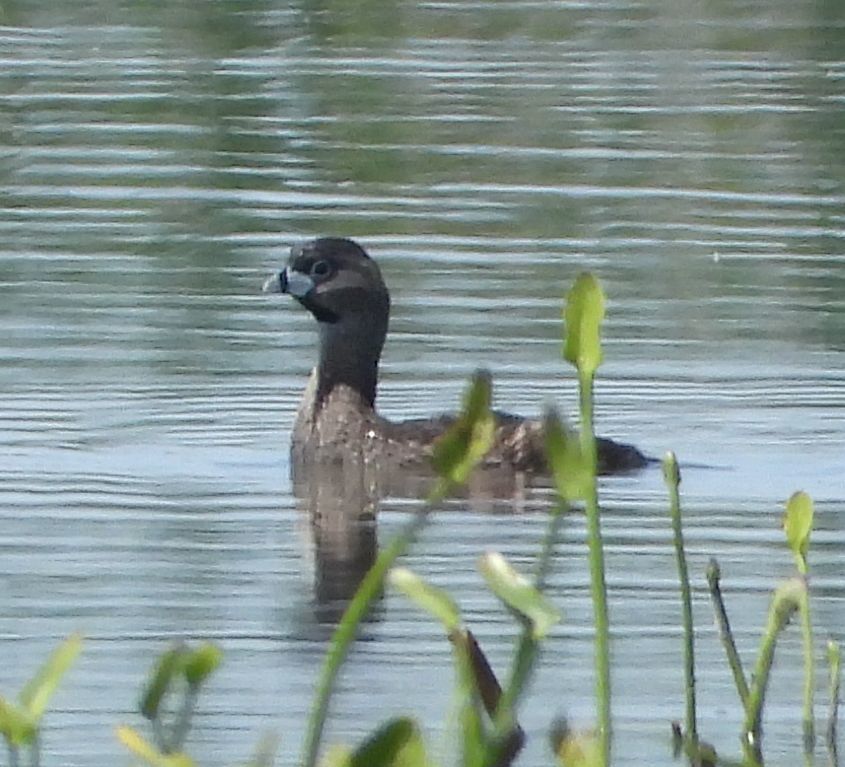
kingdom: Animalia
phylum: Chordata
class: Aves
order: Podicipediformes
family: Podicipedidae
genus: Podilymbus
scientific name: Podilymbus podiceps
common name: Pied-billed grebe
